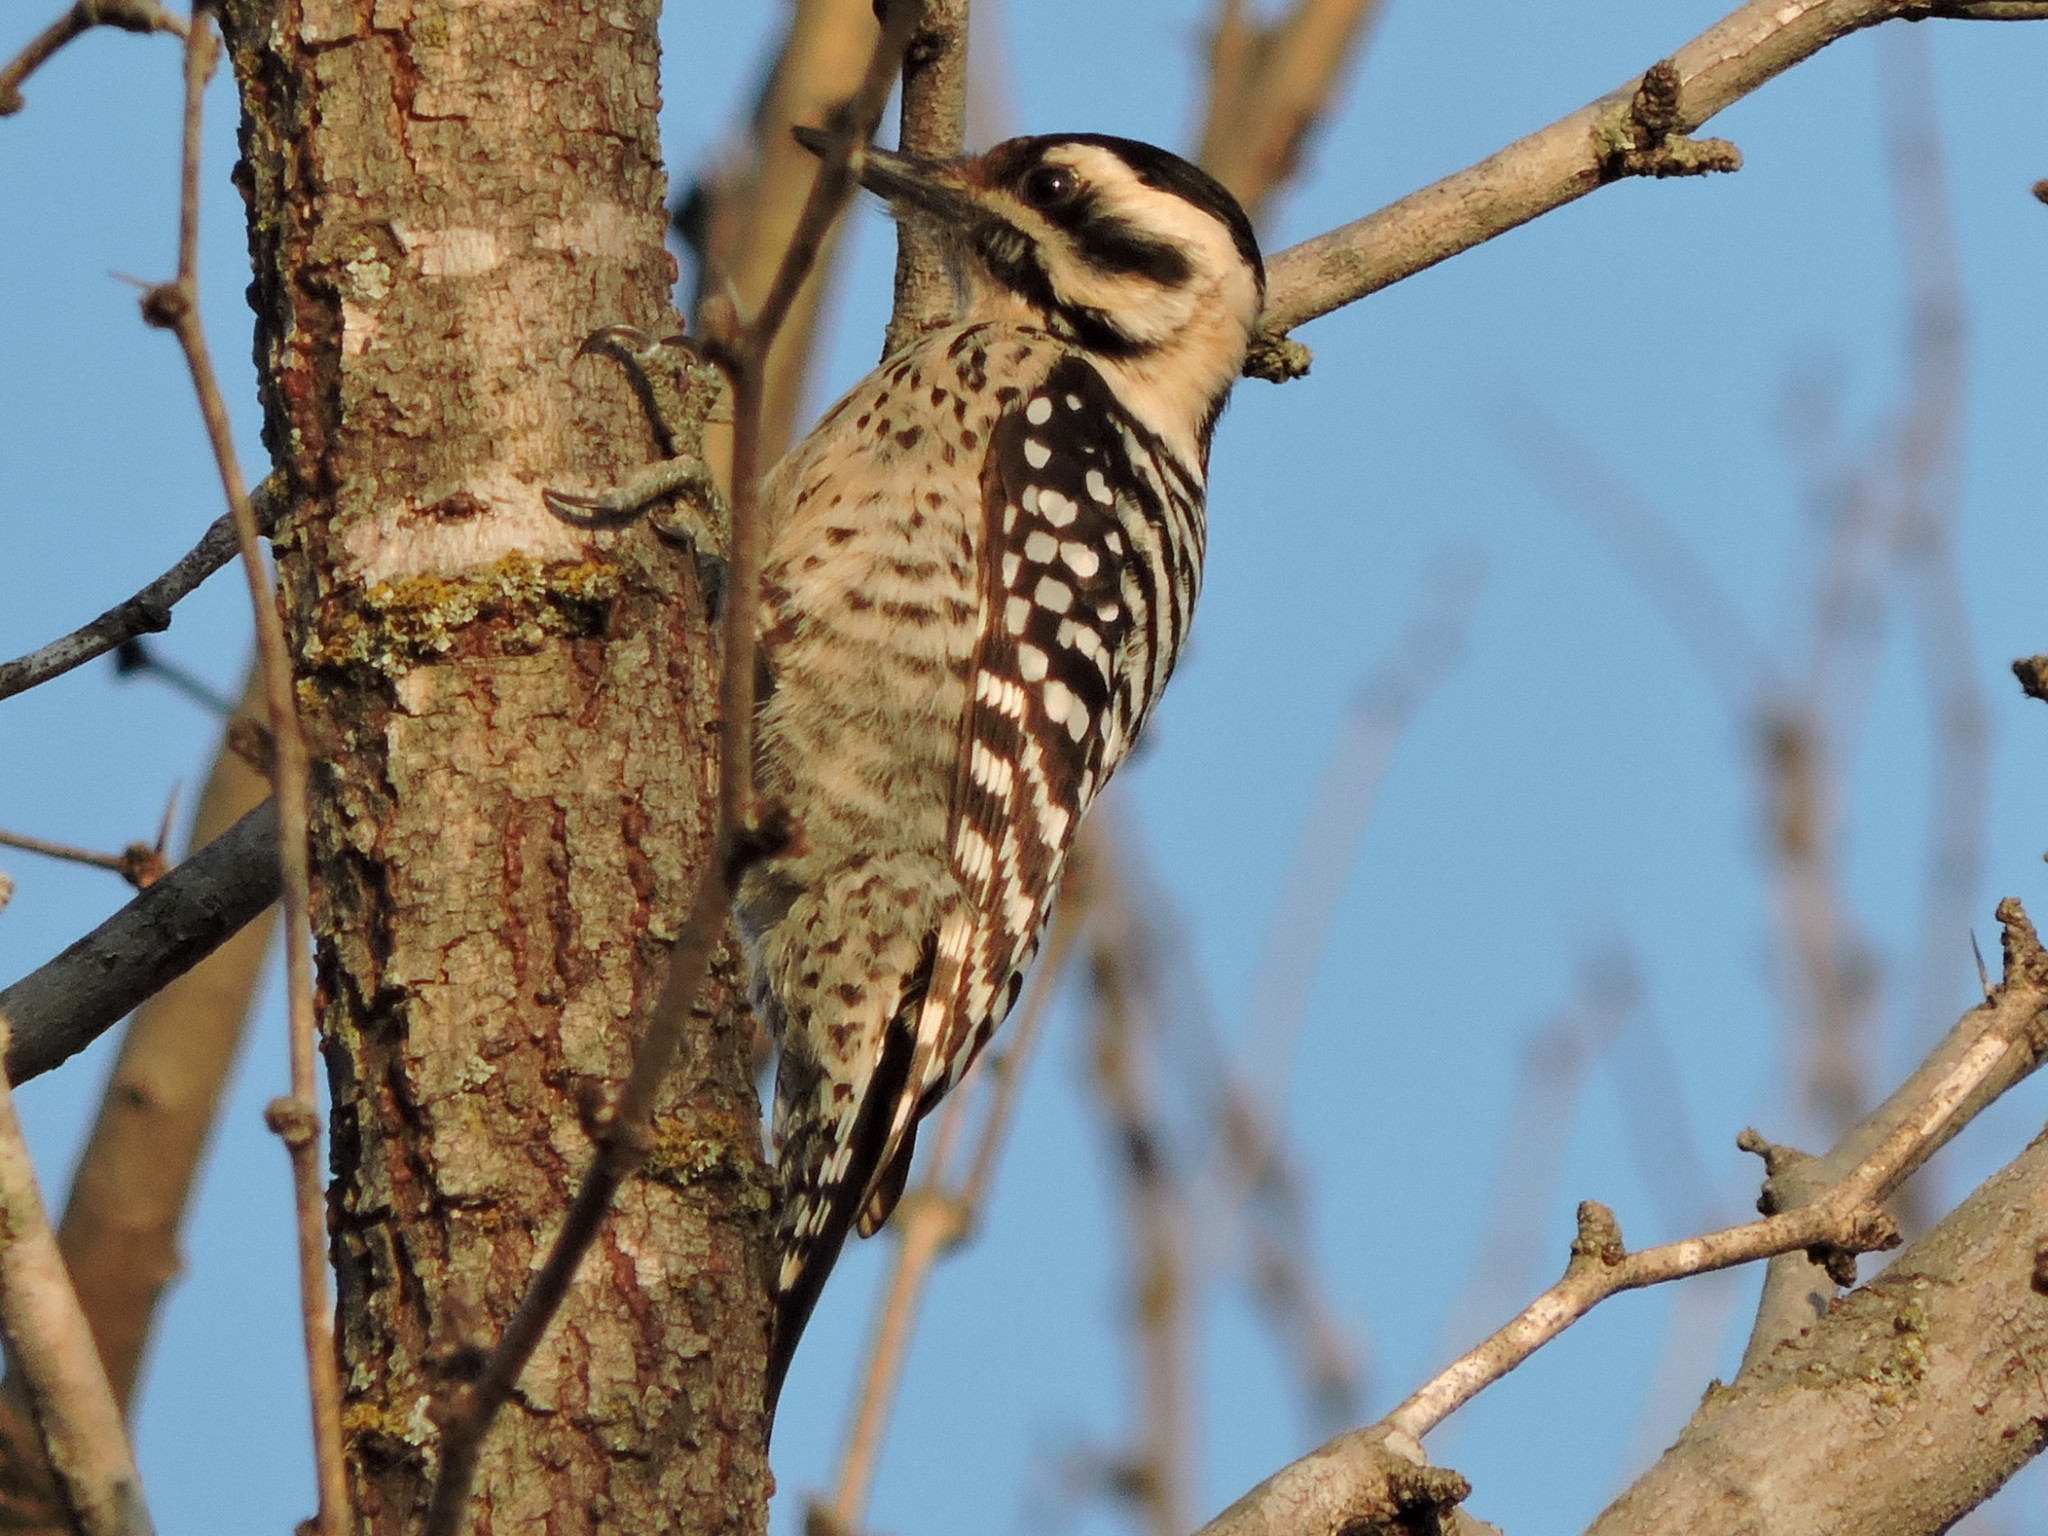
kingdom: Animalia
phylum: Chordata
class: Aves
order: Piciformes
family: Picidae
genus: Dryobates
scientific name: Dryobates scalaris
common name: Ladder-backed woodpecker
